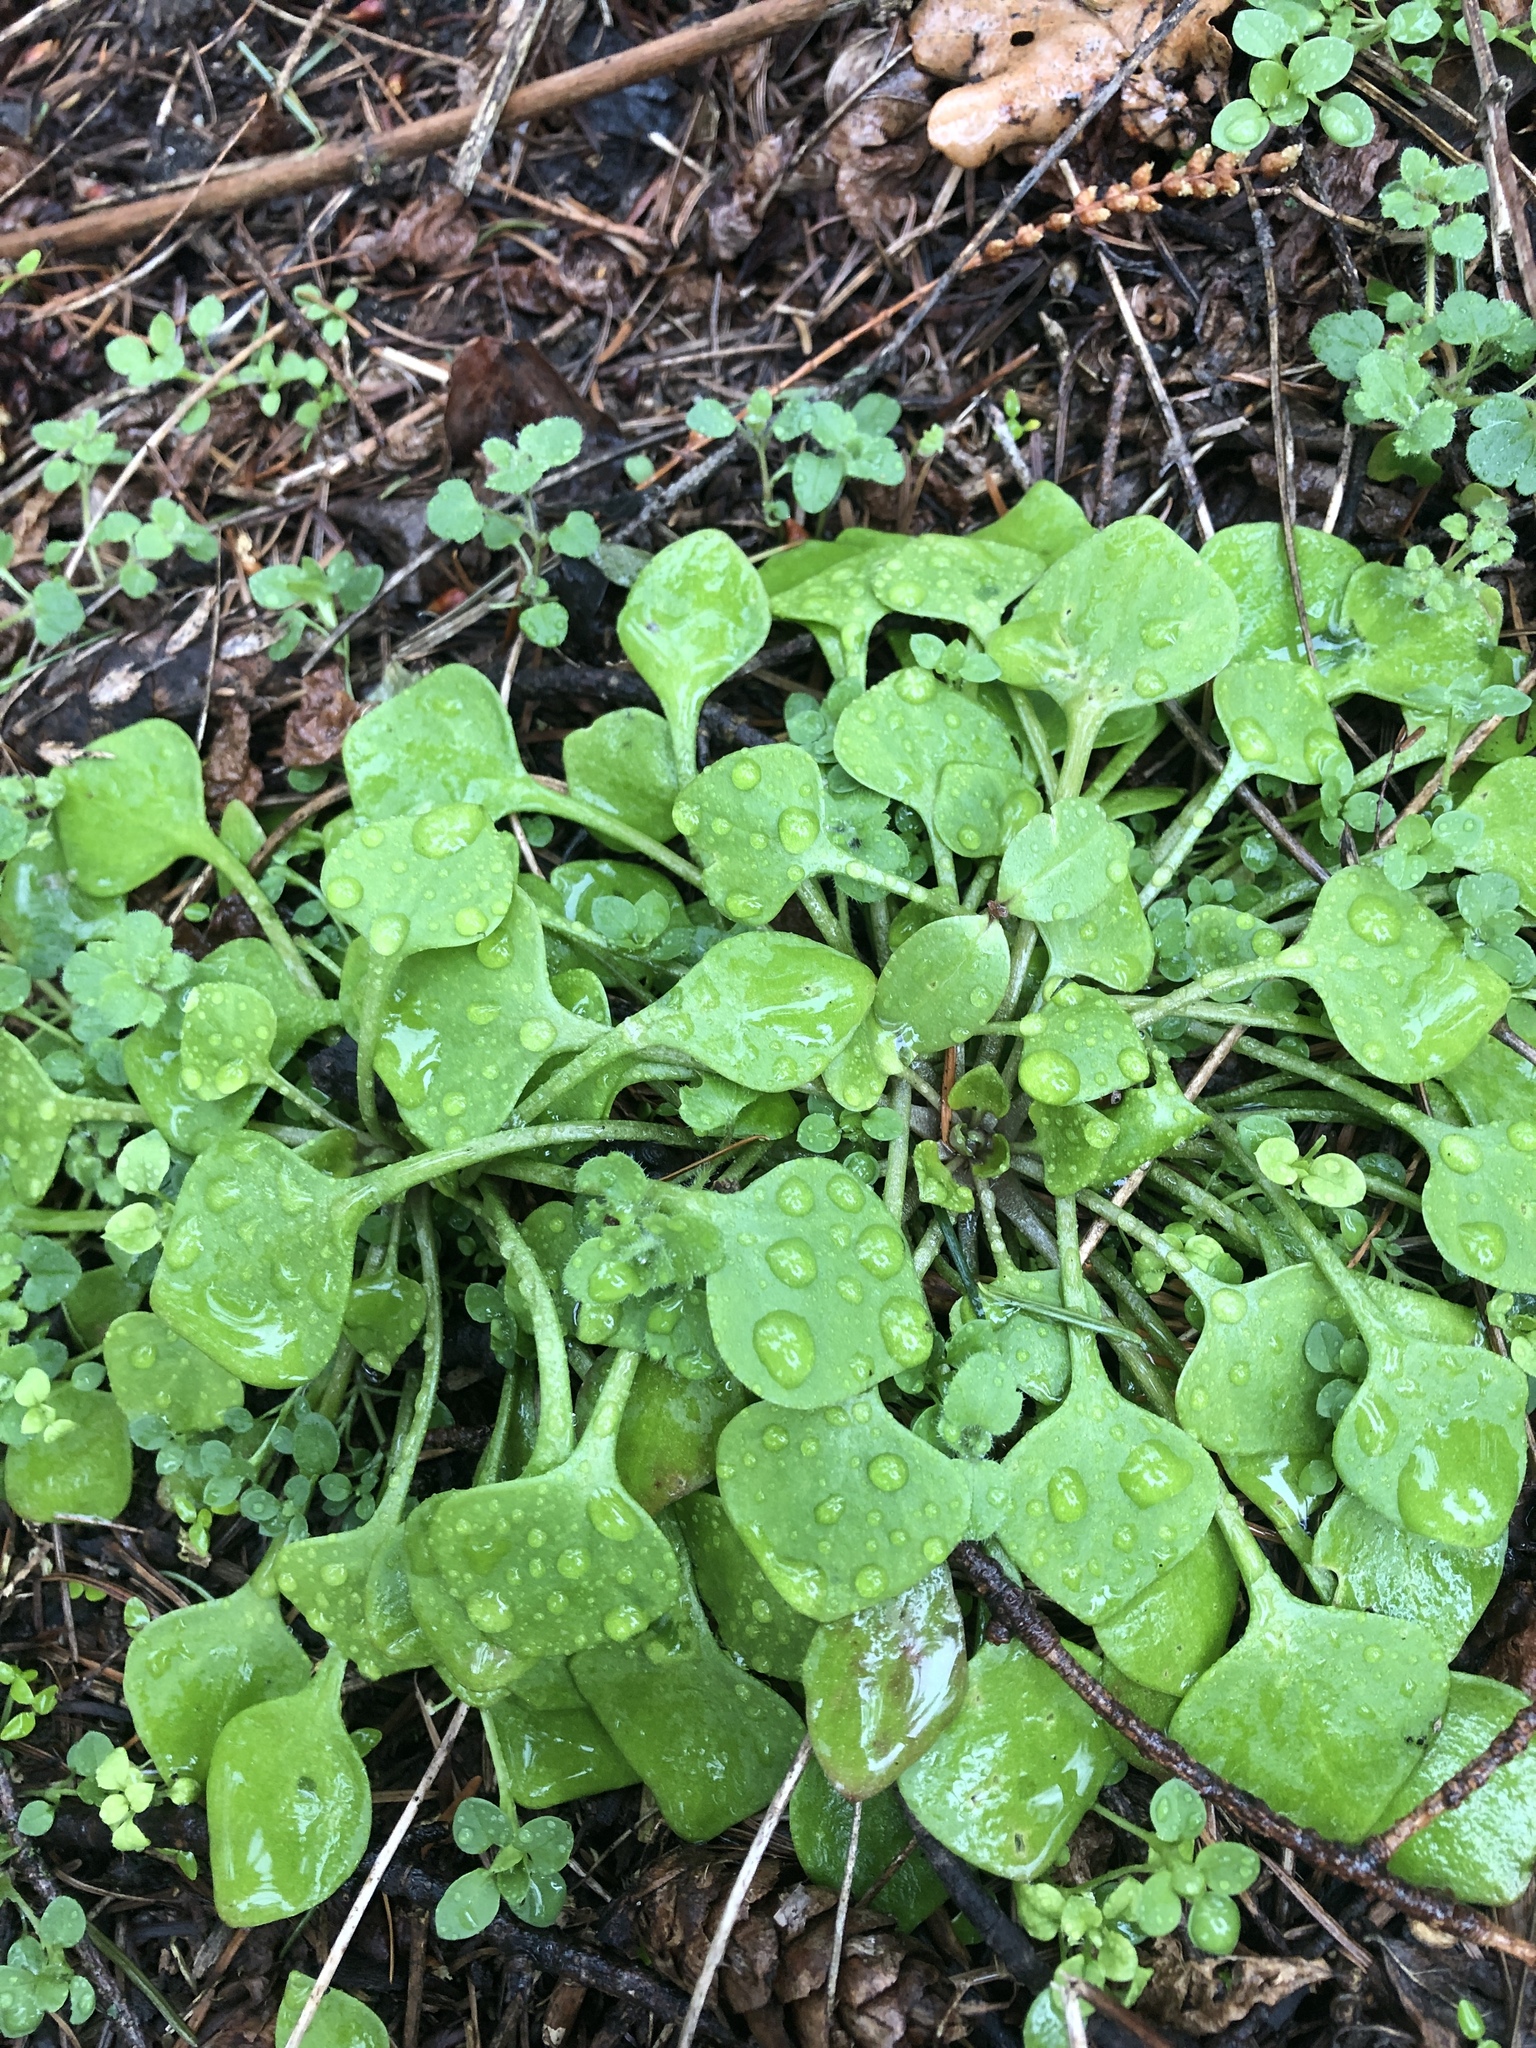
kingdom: Plantae
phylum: Tracheophyta
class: Magnoliopsida
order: Caryophyllales
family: Montiaceae
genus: Claytonia
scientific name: Claytonia perfoliata
